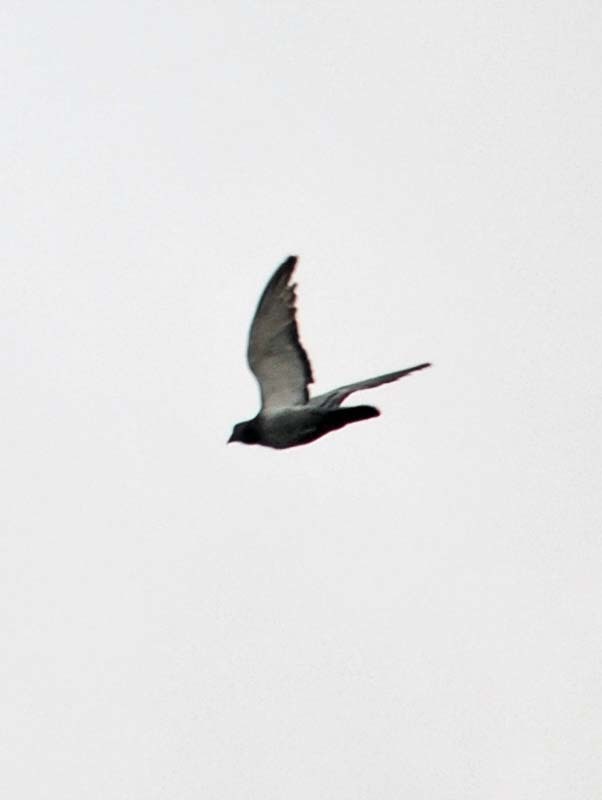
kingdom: Animalia
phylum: Chordata
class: Aves
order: Columbiformes
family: Columbidae
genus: Columba
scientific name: Columba livia
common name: Rock pigeon
